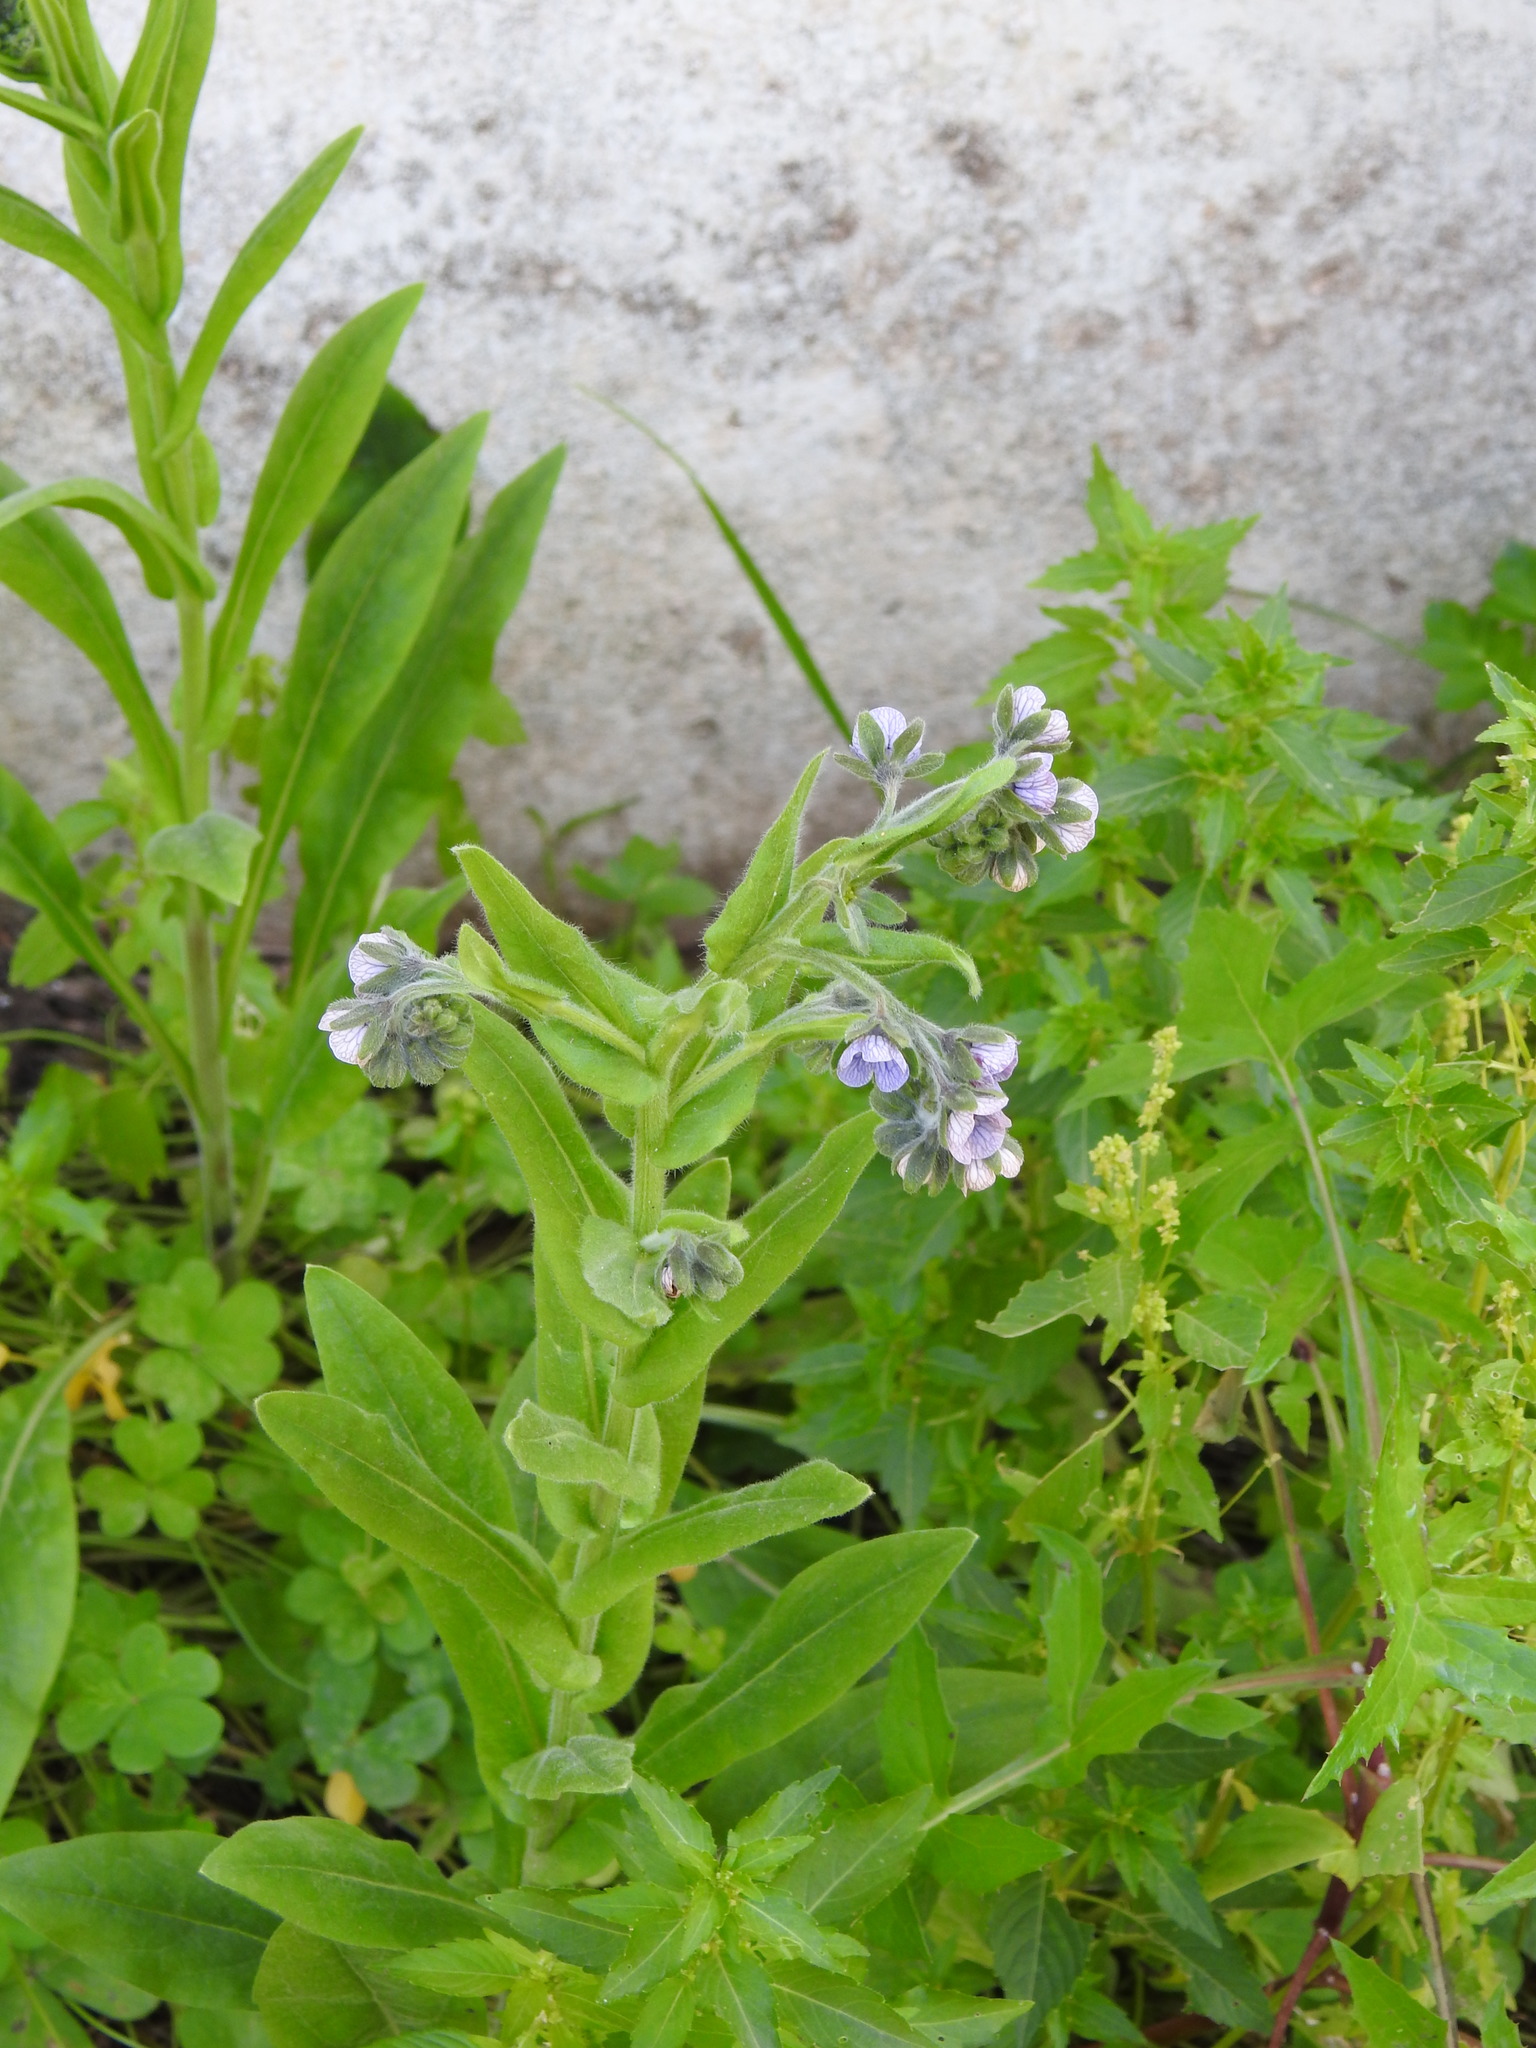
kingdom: Plantae
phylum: Tracheophyta
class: Magnoliopsida
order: Boraginales
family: Boraginaceae
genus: Cynoglossum
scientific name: Cynoglossum creticum
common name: Blue hound's tongue
